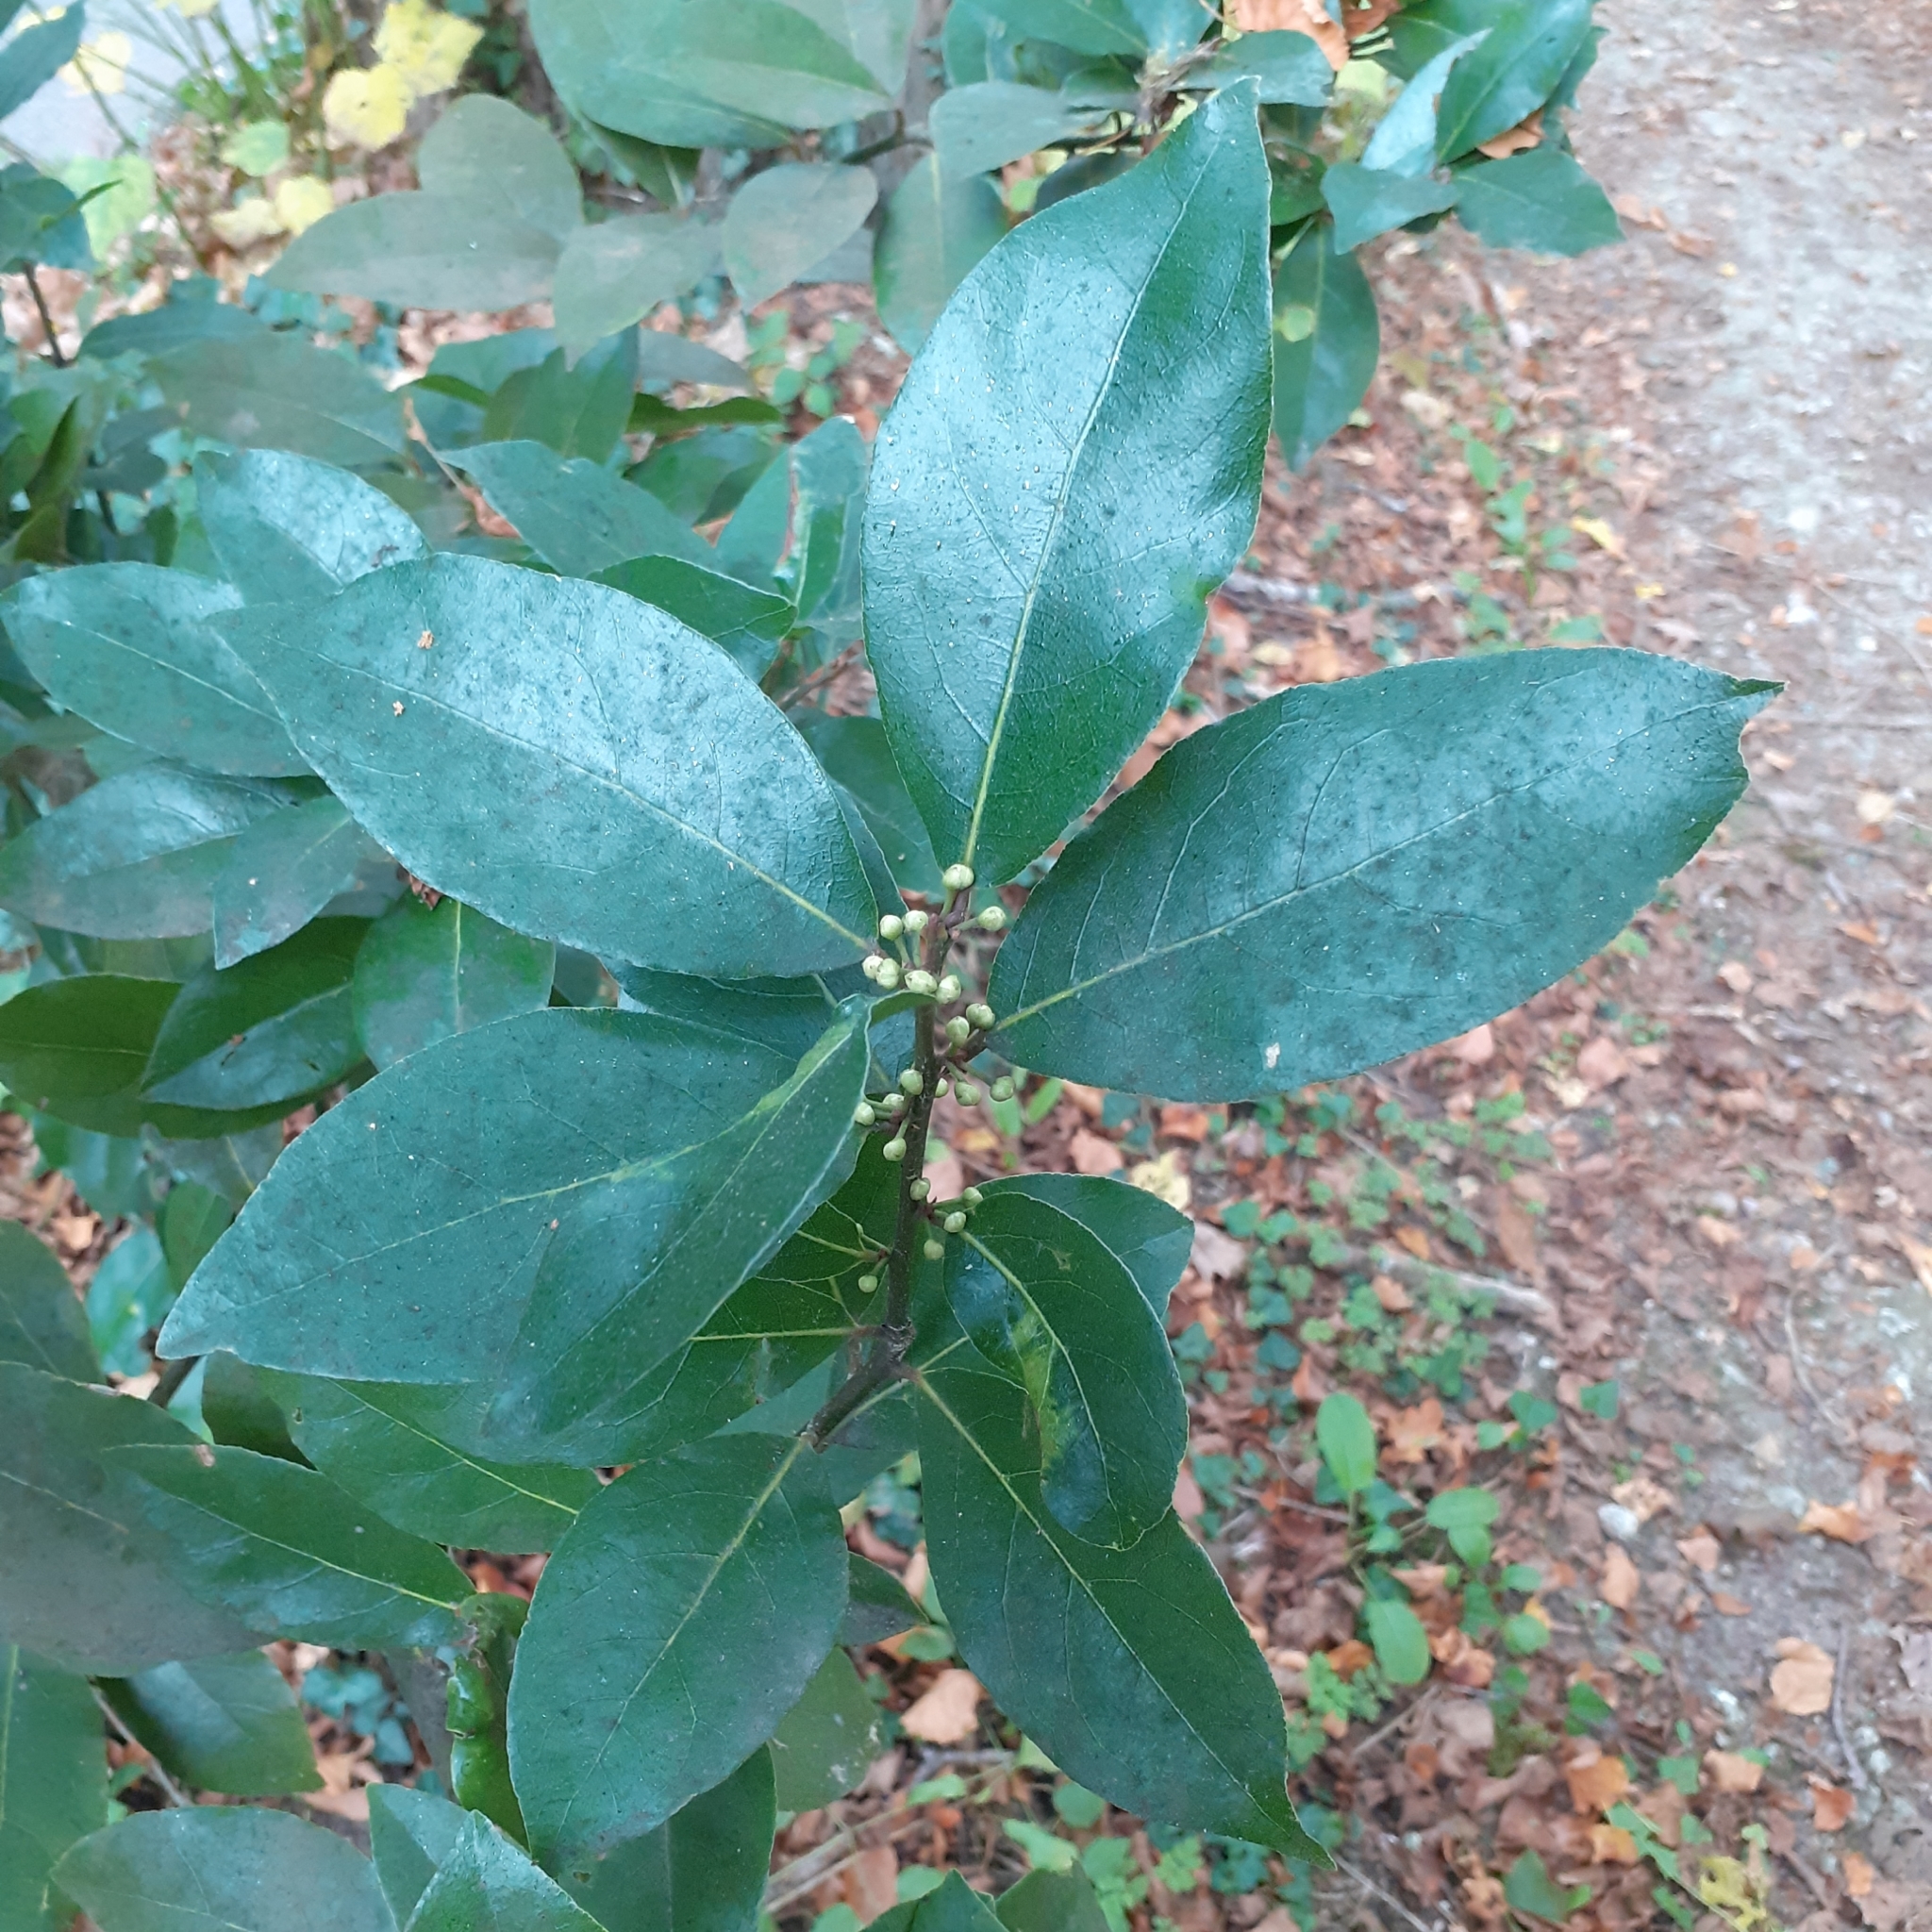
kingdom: Plantae
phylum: Tracheophyta
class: Magnoliopsida
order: Laurales
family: Lauraceae
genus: Laurus
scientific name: Laurus nobilis
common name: Bay
